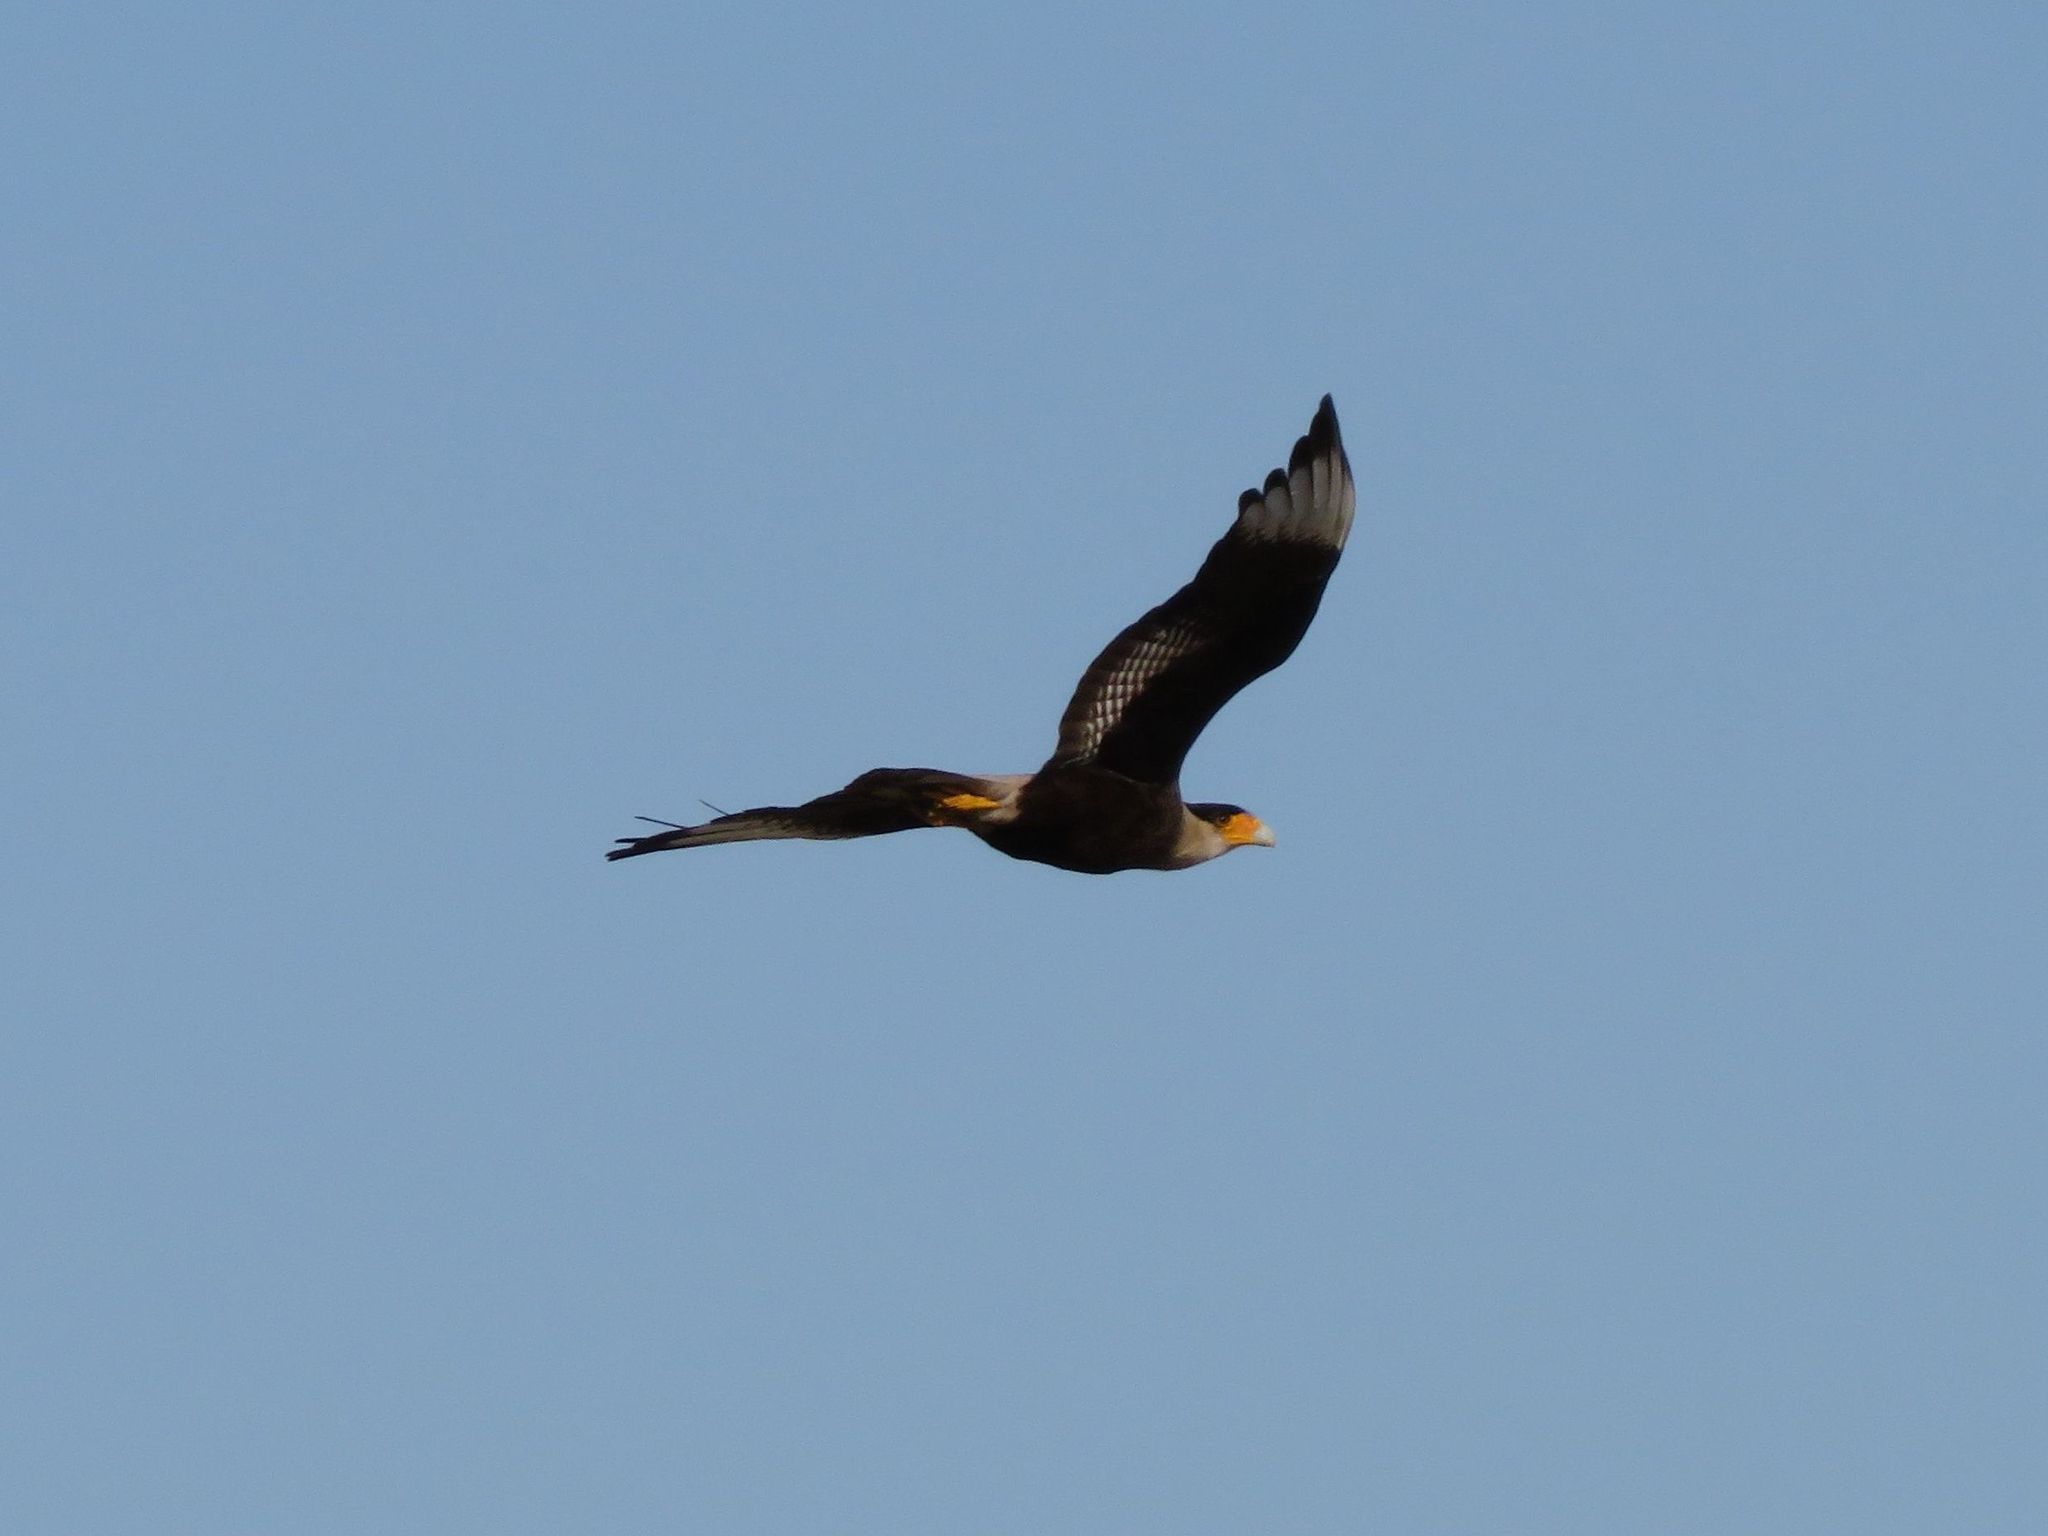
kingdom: Animalia
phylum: Chordata
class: Aves
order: Falconiformes
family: Falconidae
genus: Caracara
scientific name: Caracara plancus
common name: Southern caracara
